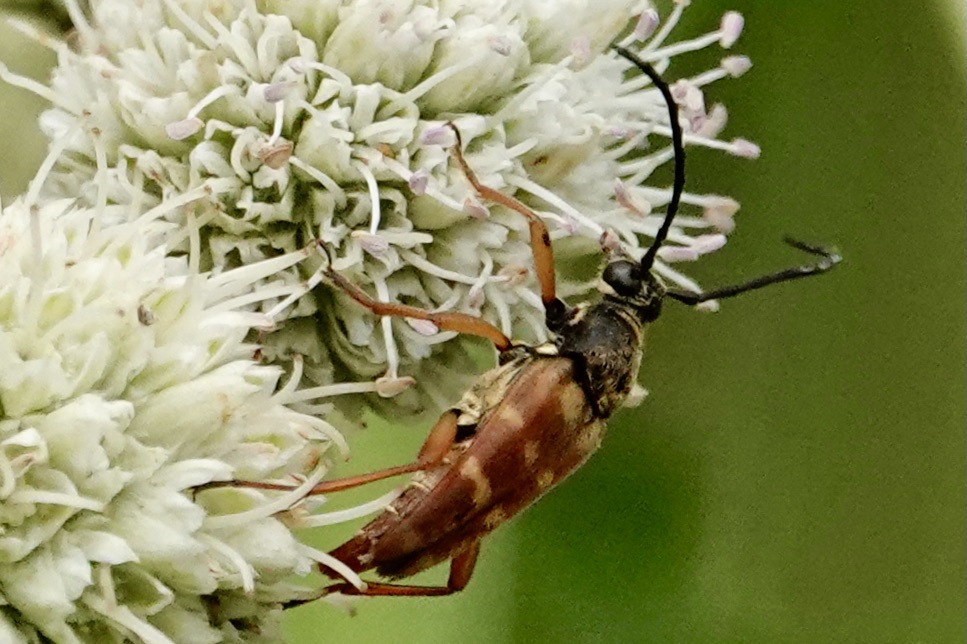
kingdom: Animalia
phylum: Arthropoda
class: Insecta
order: Coleoptera
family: Cerambycidae
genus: Typocerus
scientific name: Typocerus velutinus
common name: Banded longhorn beetle
